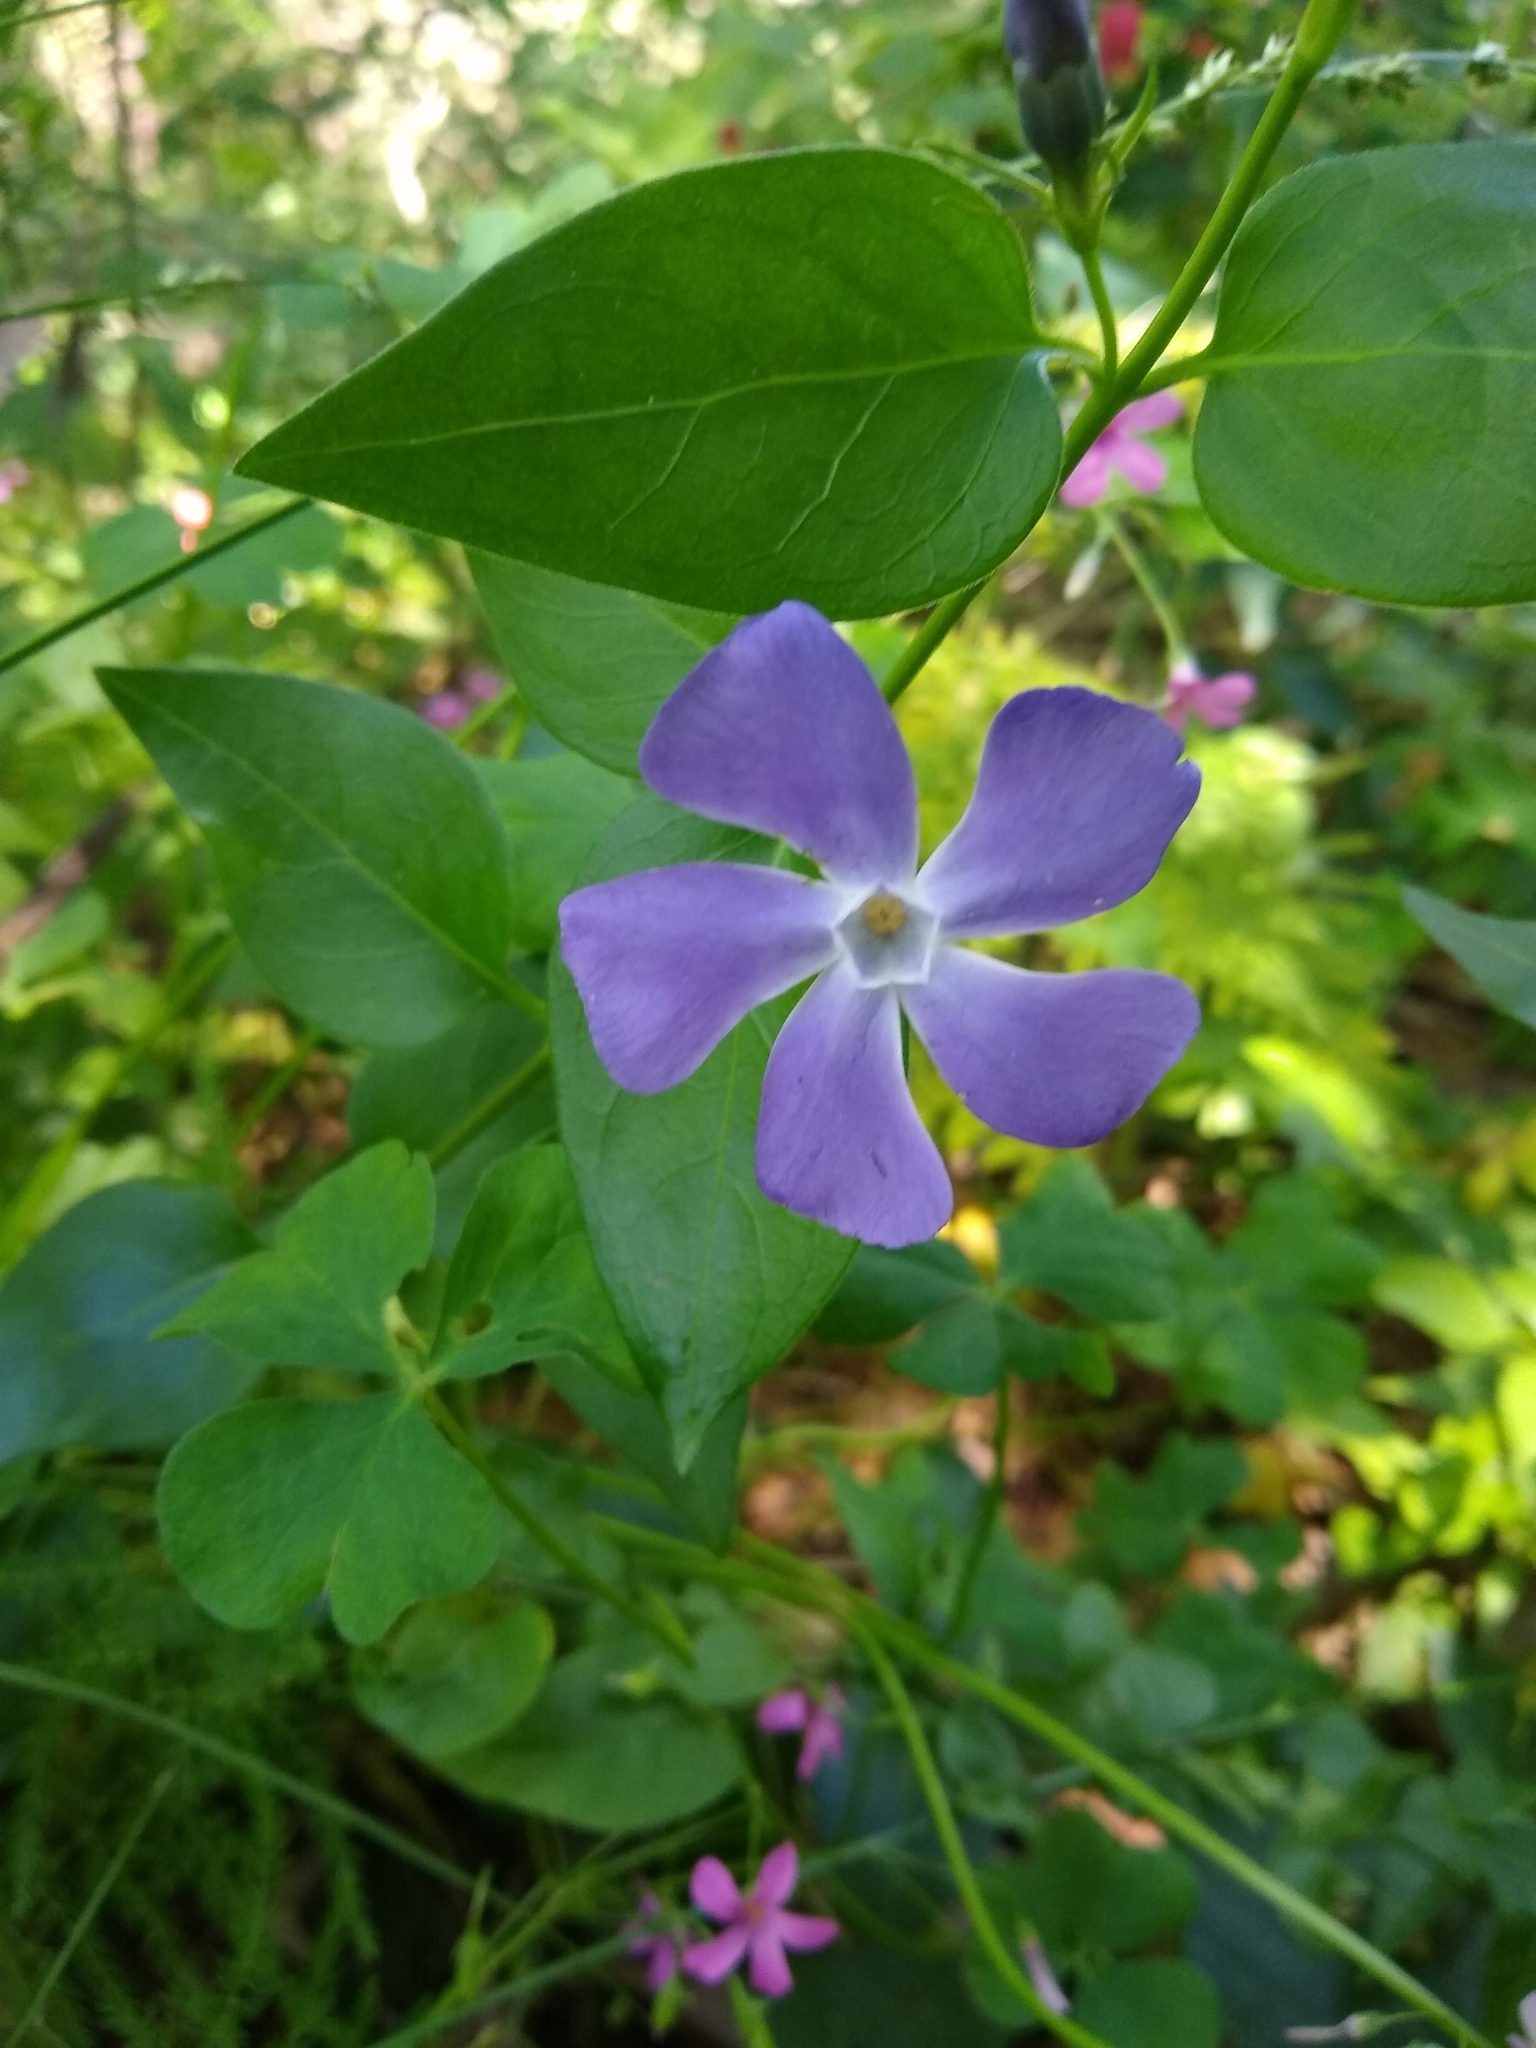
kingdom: Plantae
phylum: Tracheophyta
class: Magnoliopsida
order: Gentianales
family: Apocynaceae
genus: Vinca
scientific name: Vinca major
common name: Greater periwinkle
